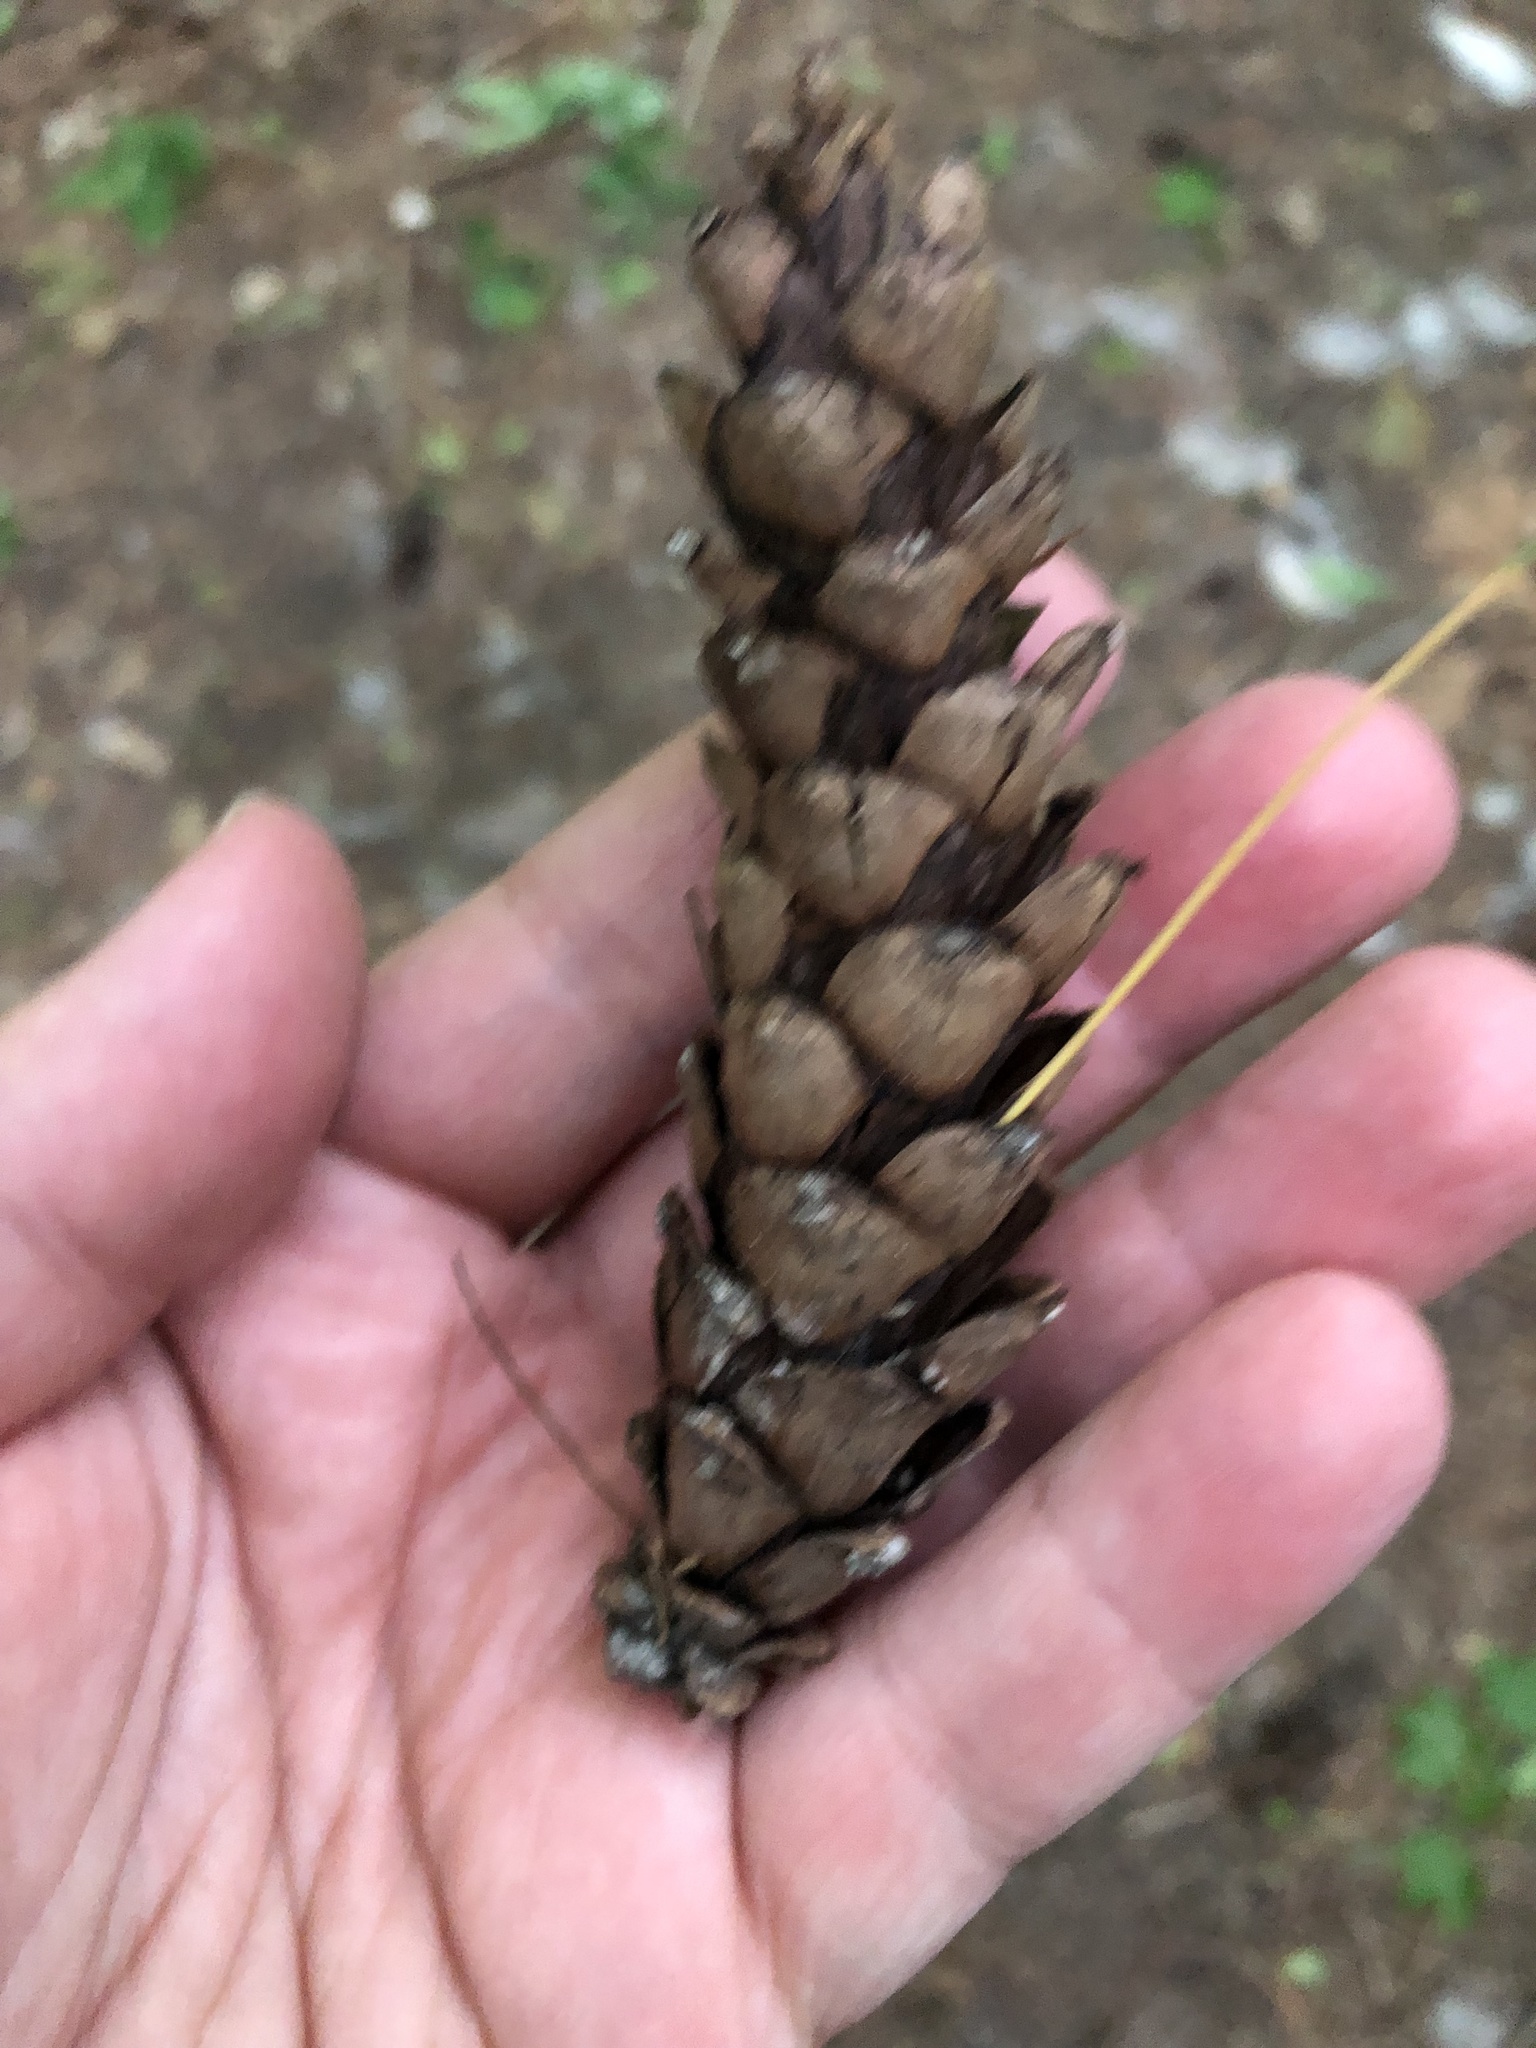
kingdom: Plantae
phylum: Tracheophyta
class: Pinopsida
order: Pinales
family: Pinaceae
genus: Pinus
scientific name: Pinus strobus
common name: Weymouth pine
